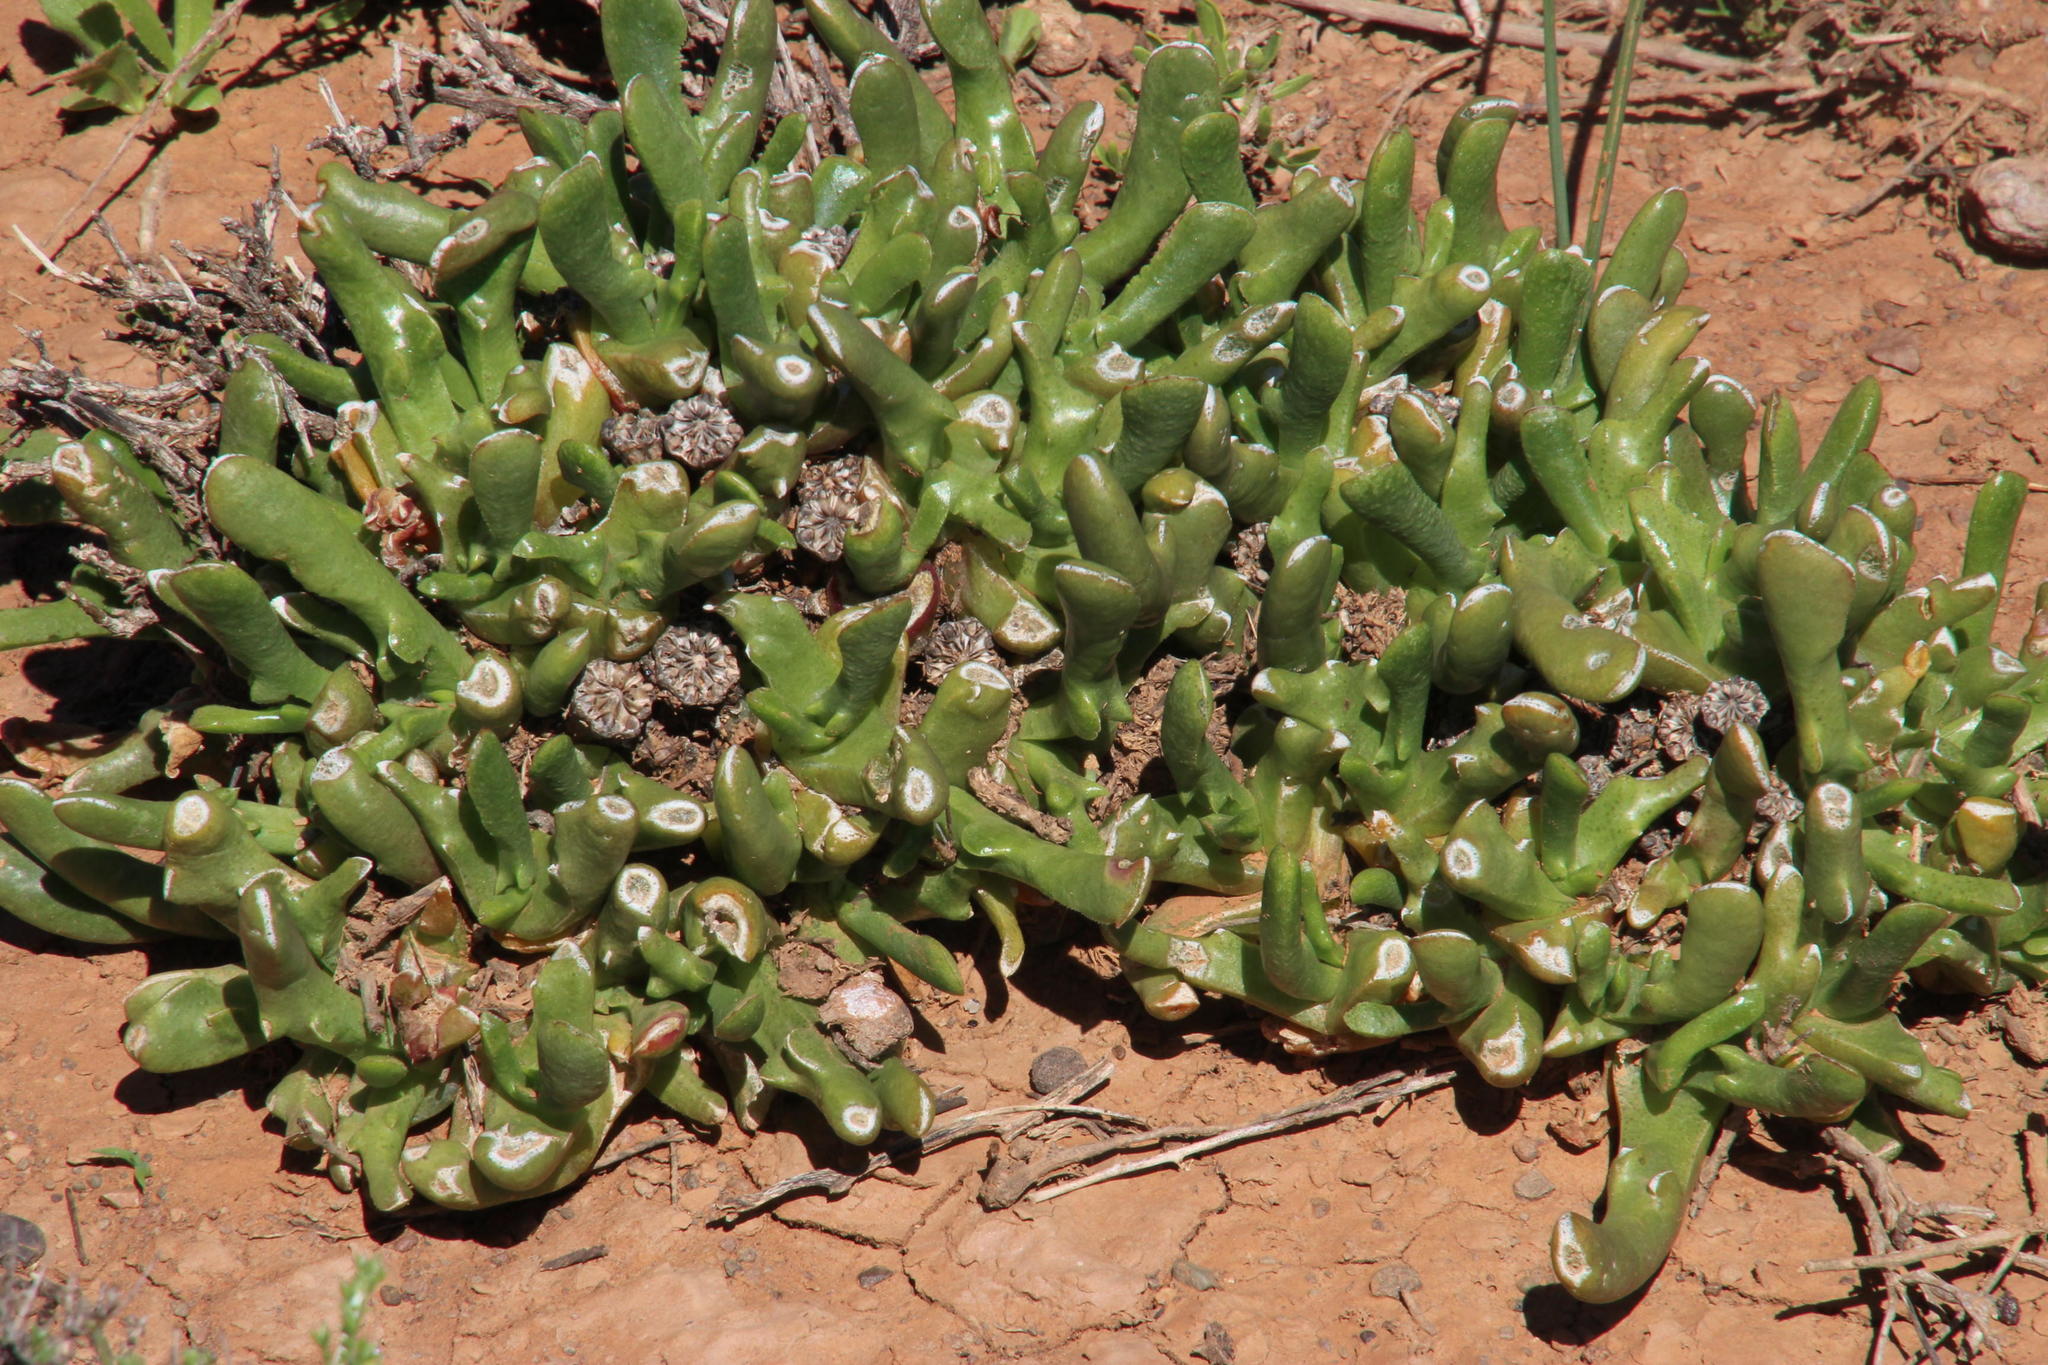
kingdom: Plantae
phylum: Tracheophyta
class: Magnoliopsida
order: Caryophyllales
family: Aizoaceae
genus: Glottiphyllum
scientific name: Glottiphyllum difforme
